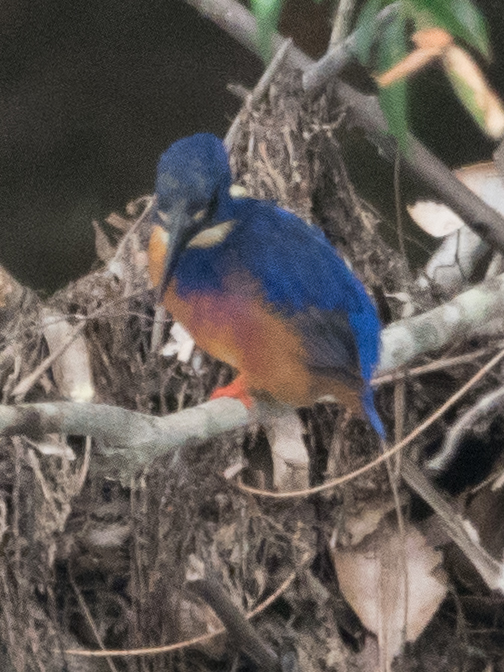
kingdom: Animalia
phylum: Chordata
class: Aves
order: Coraciiformes
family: Alcedinidae
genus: Ceyx
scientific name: Ceyx azureus
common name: Azure kingfisher
